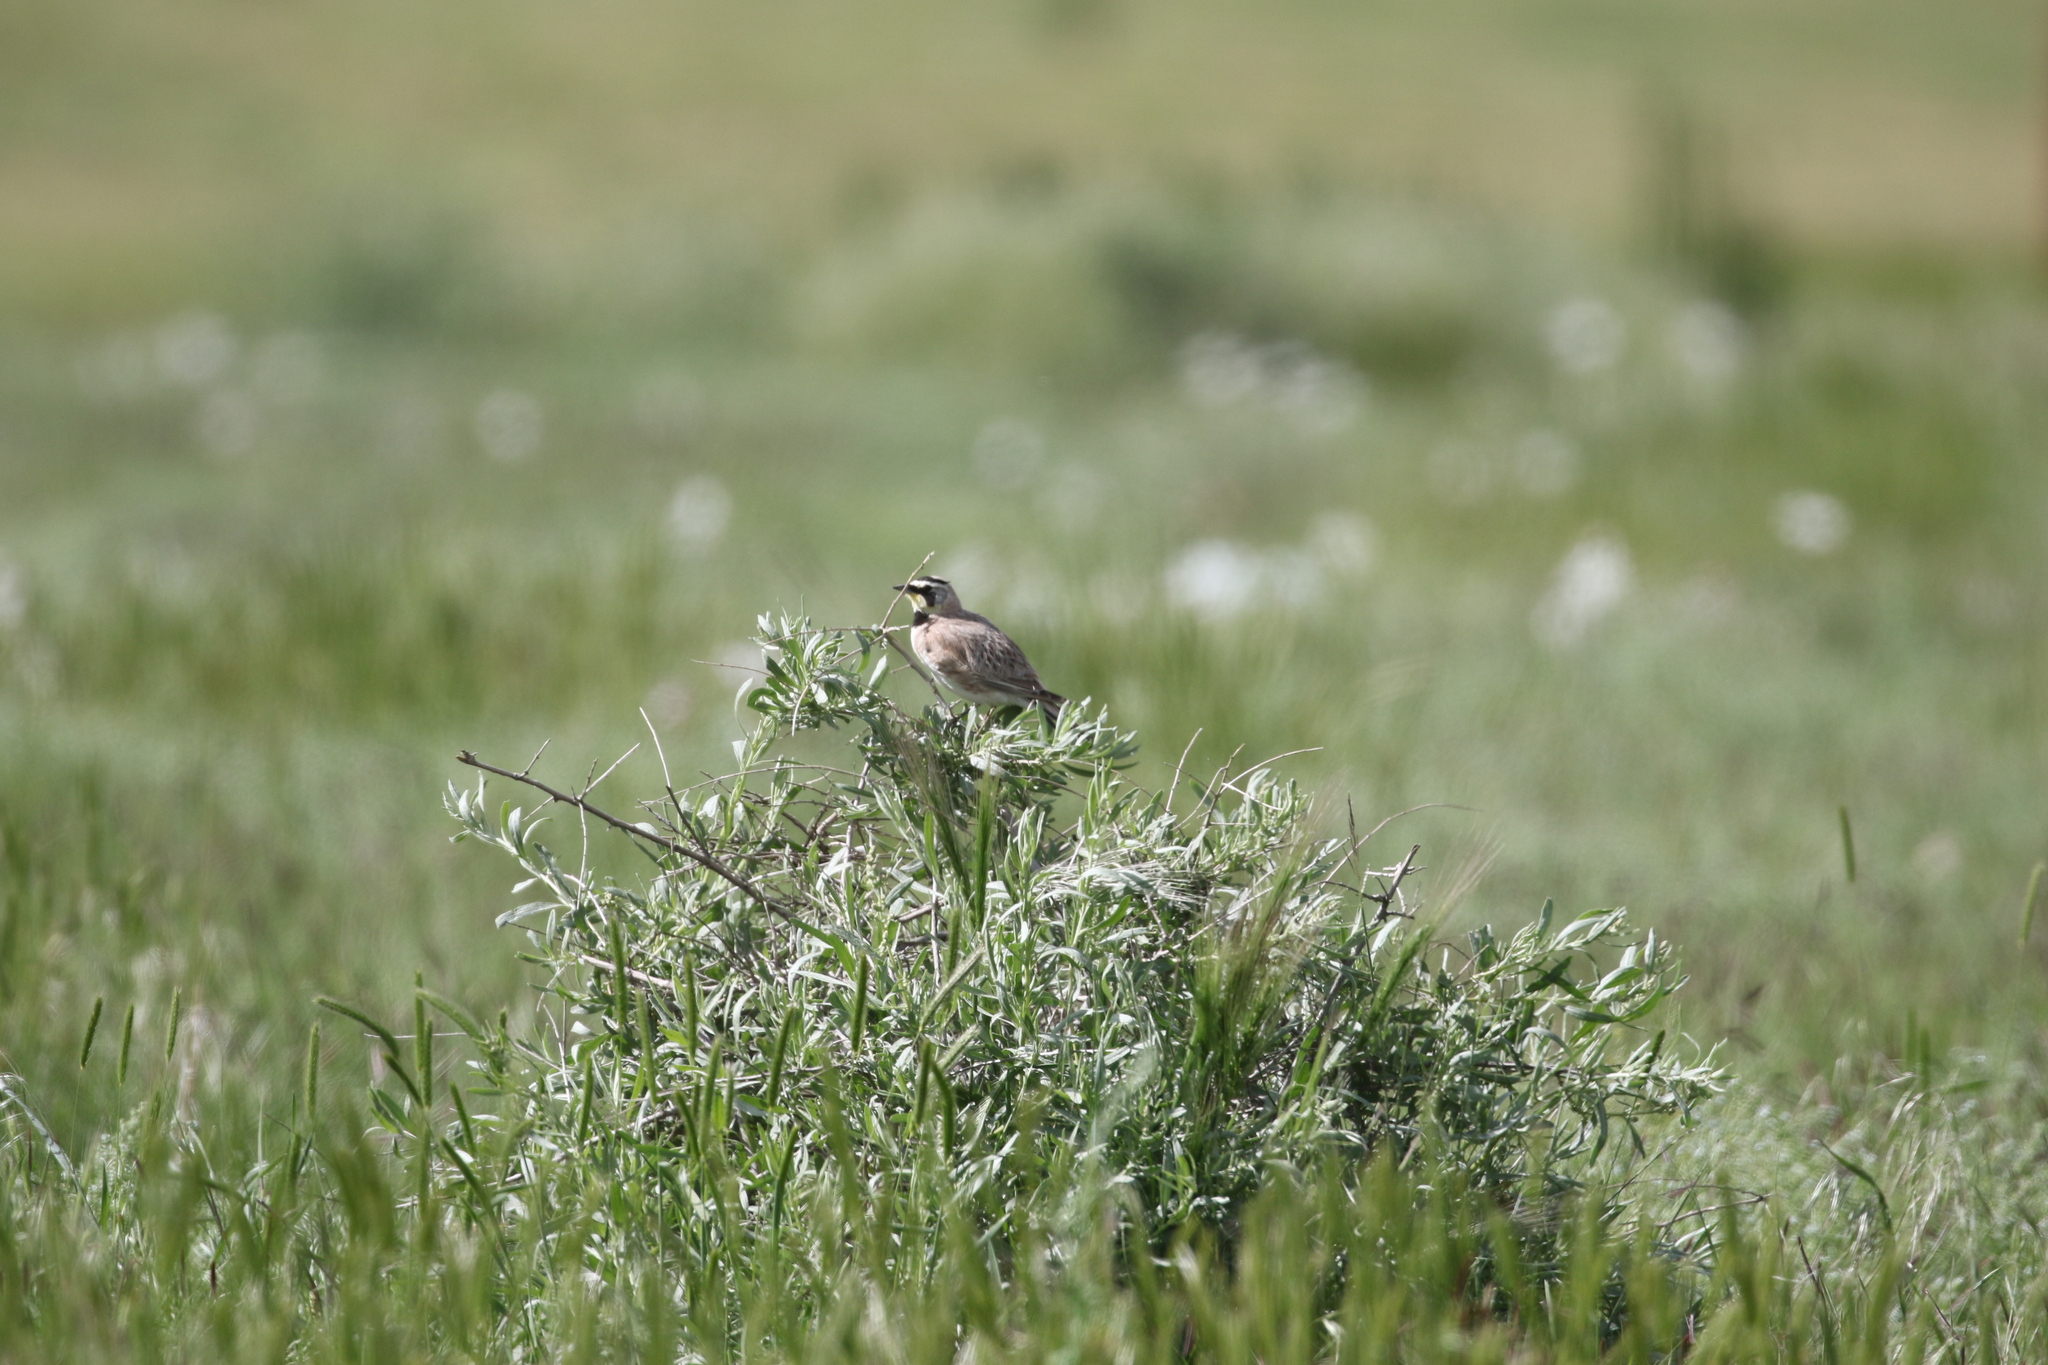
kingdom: Animalia
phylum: Chordata
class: Aves
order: Passeriformes
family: Alaudidae
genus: Eremophila
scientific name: Eremophila alpestris
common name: Horned lark
